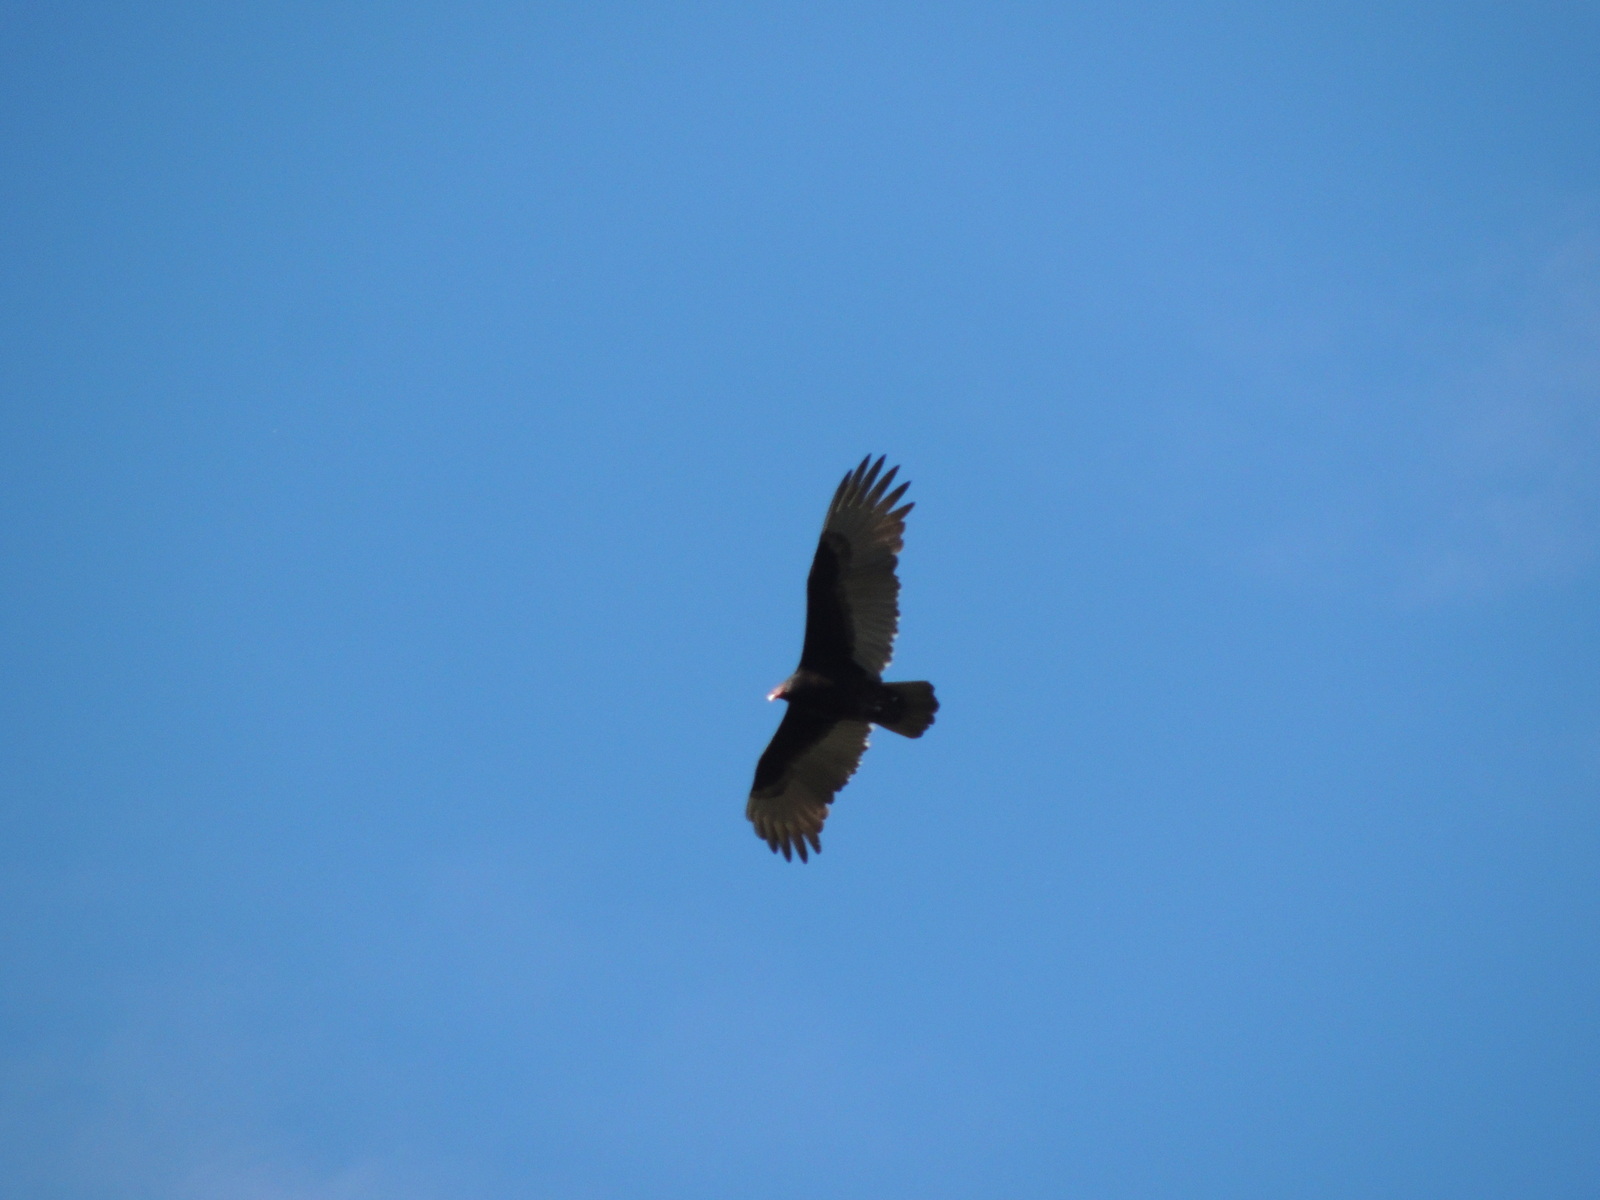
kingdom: Animalia
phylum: Chordata
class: Aves
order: Accipitriformes
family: Cathartidae
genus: Cathartes
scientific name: Cathartes aura
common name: Turkey vulture
